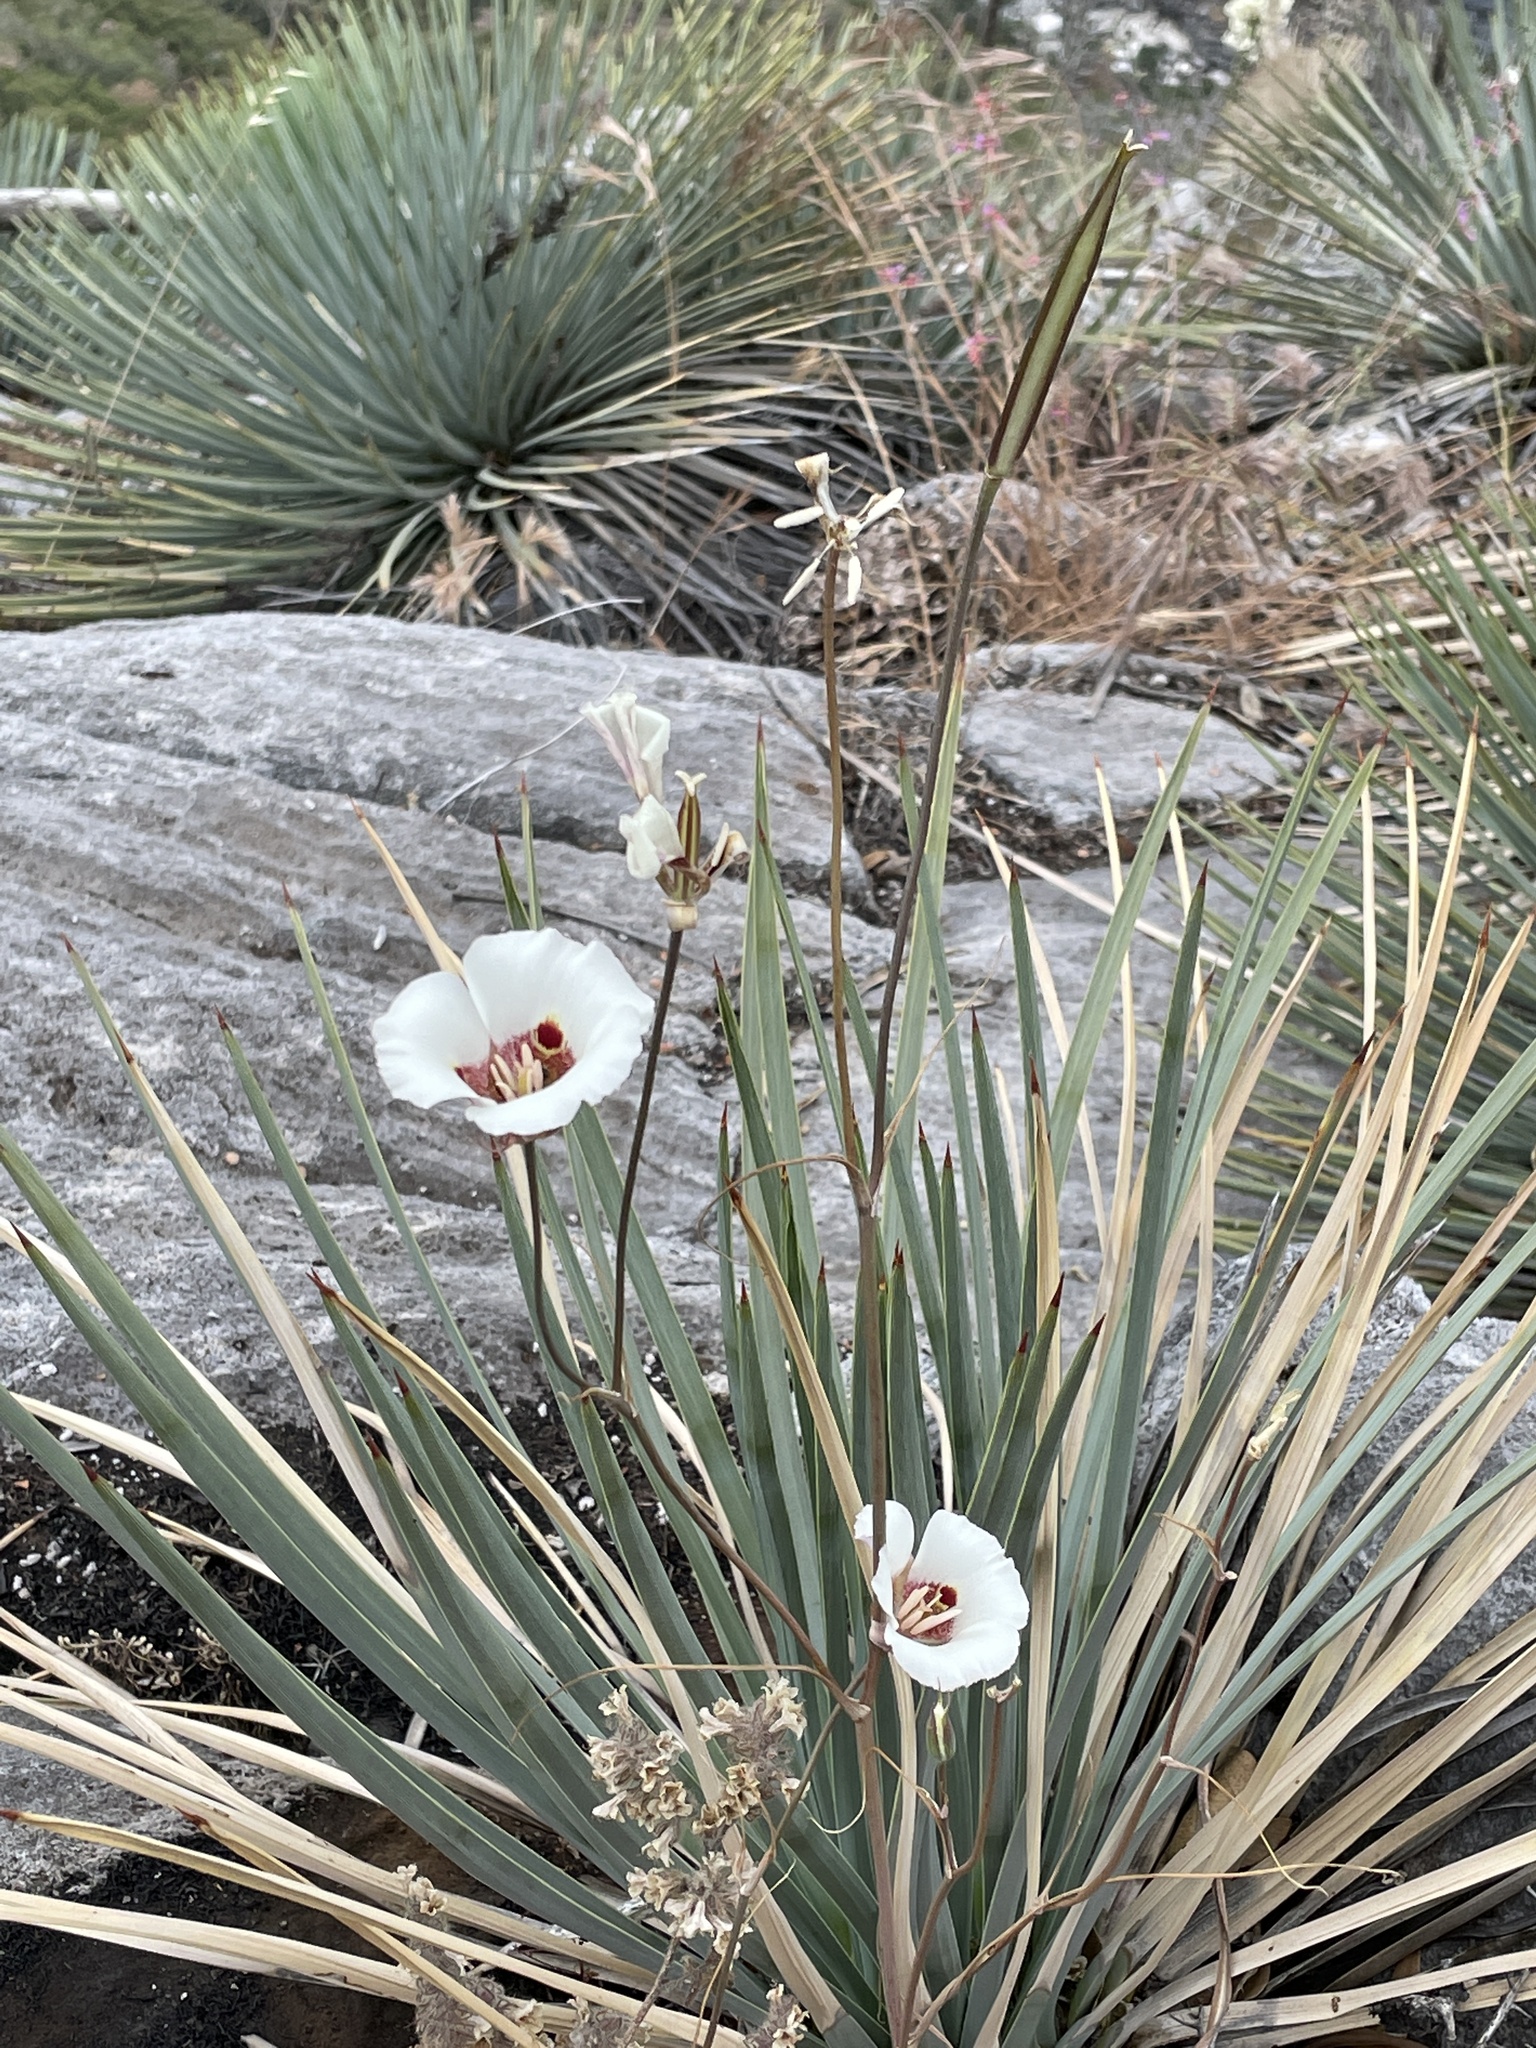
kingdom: Plantae
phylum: Tracheophyta
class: Liliopsida
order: Liliales
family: Liliaceae
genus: Calochortus
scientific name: Calochortus venustus
